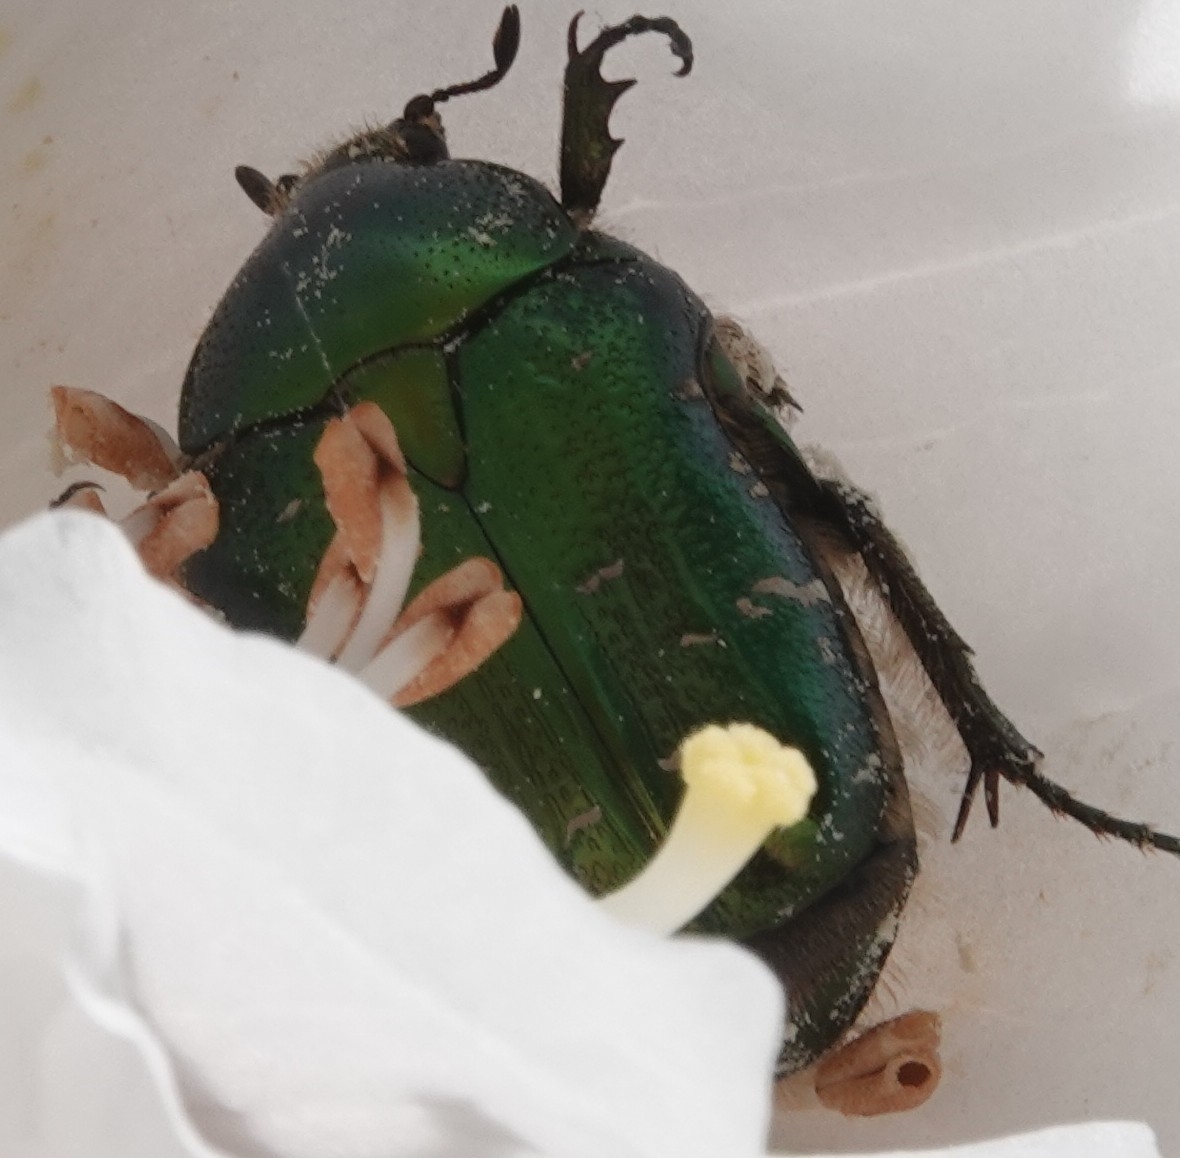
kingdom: Animalia
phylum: Arthropoda
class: Insecta
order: Coleoptera
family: Scarabaeidae
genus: Cetonia
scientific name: Cetonia aurata
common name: Rose chafer
